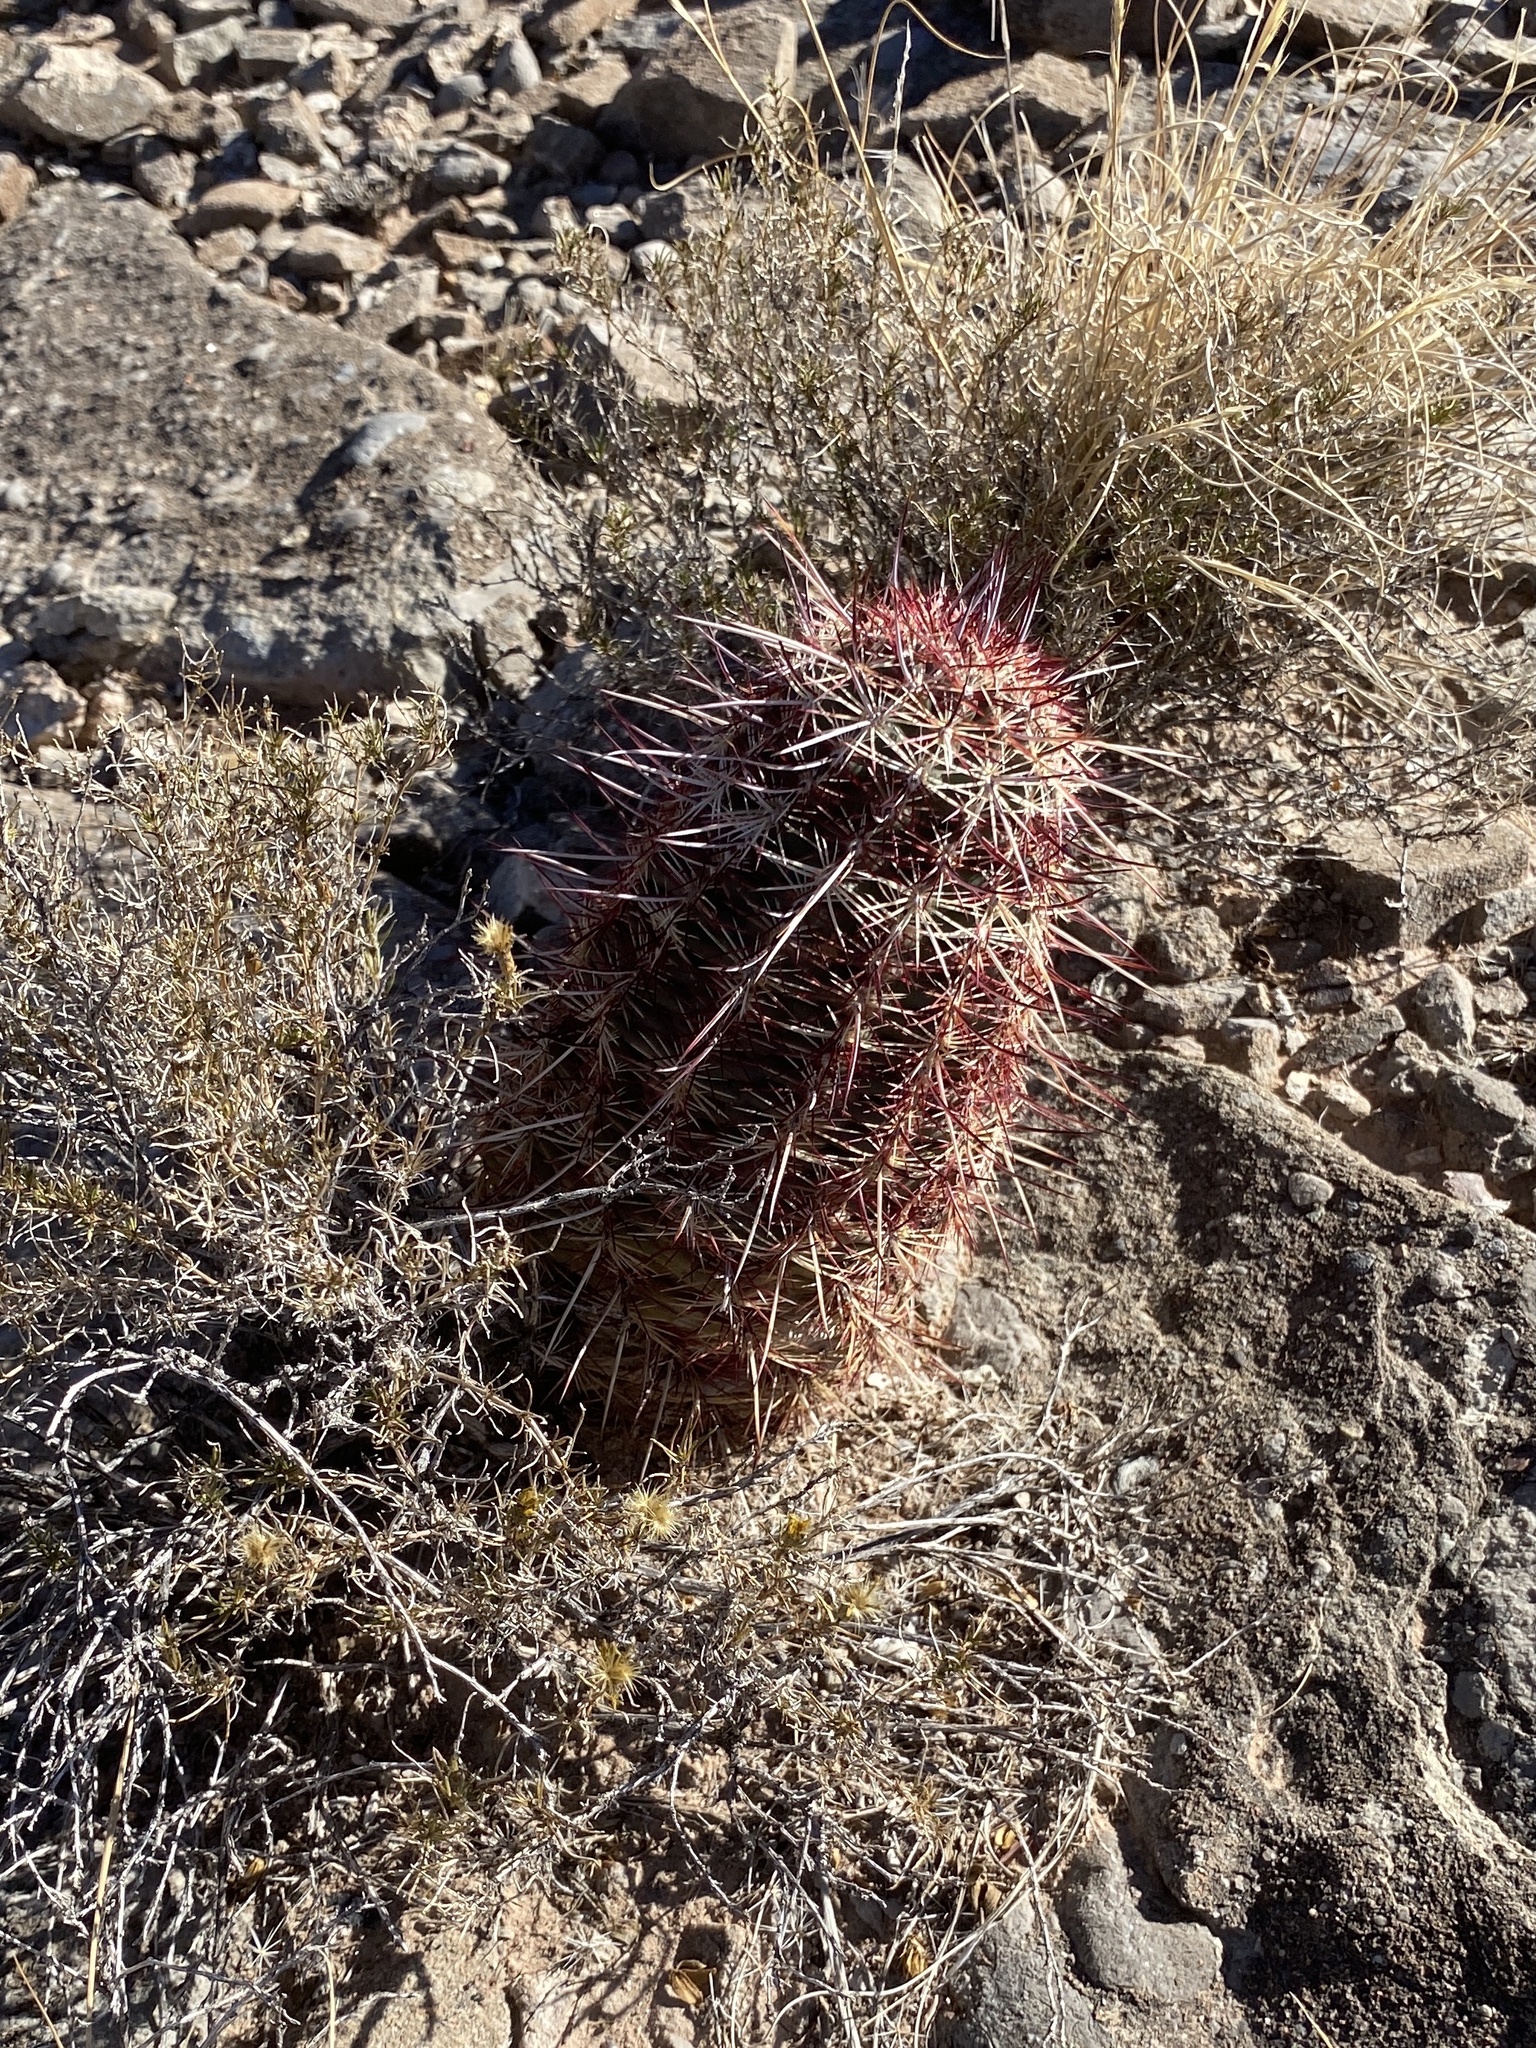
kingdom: Plantae
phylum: Tracheophyta
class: Magnoliopsida
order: Caryophyllales
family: Cactaceae
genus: Echinocereus
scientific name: Echinocereus viridiflorus
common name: Nylon hedgehog cactus
